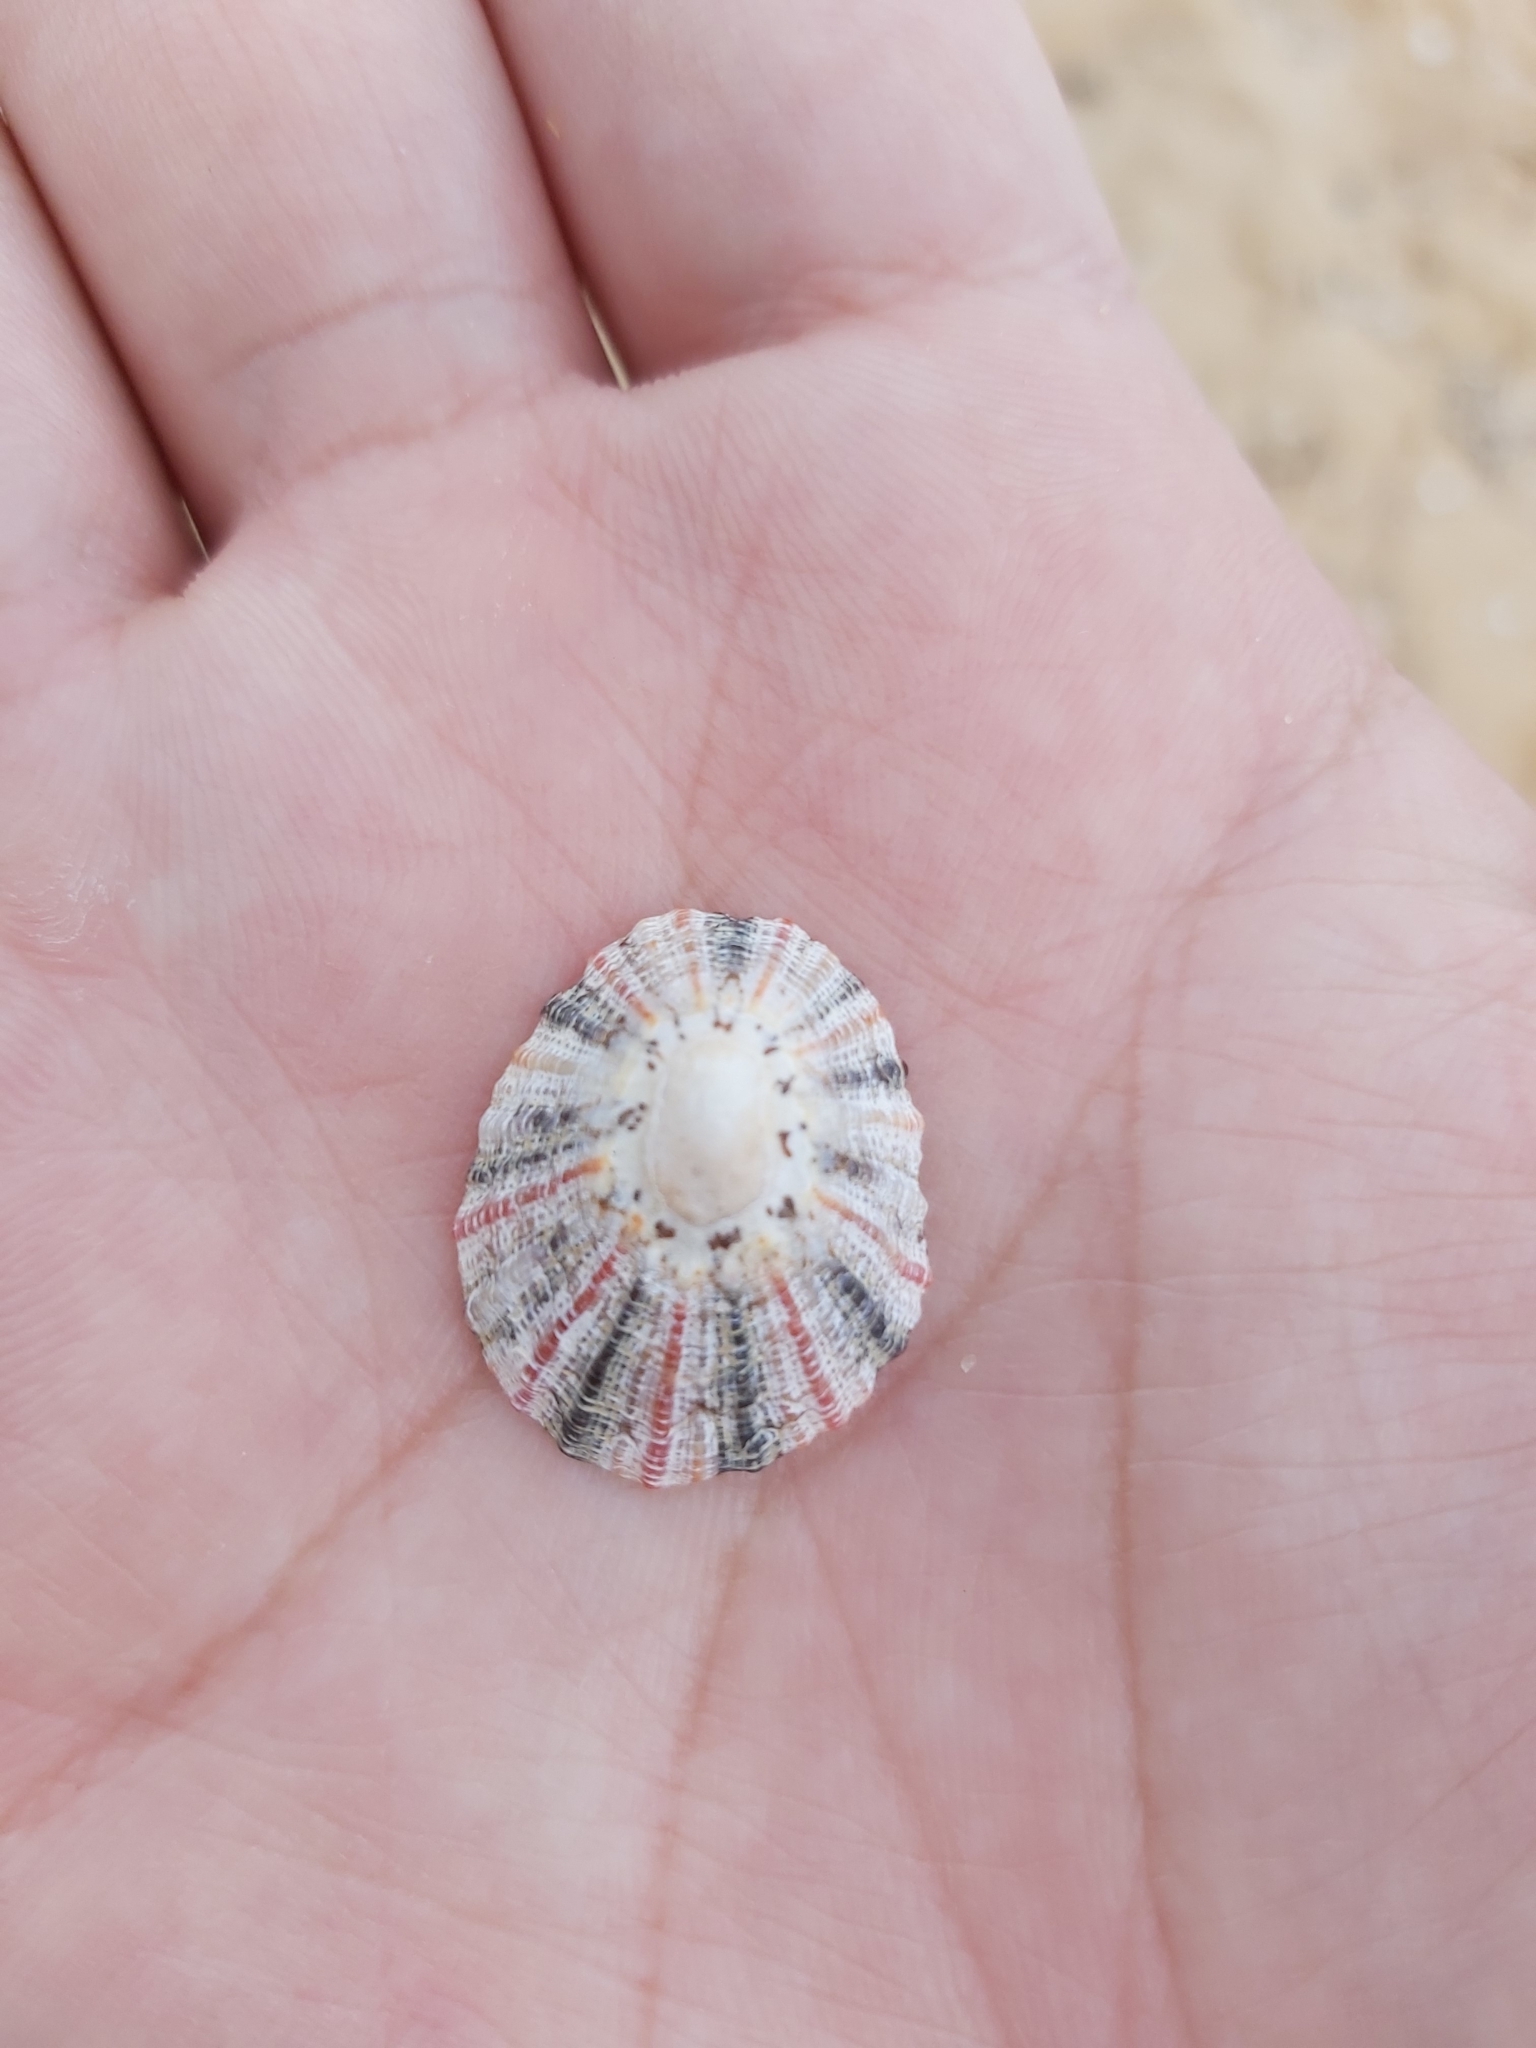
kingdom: Animalia
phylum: Mollusca
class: Gastropoda
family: Nacellidae
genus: Cellana
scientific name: Cellana tramoserica
